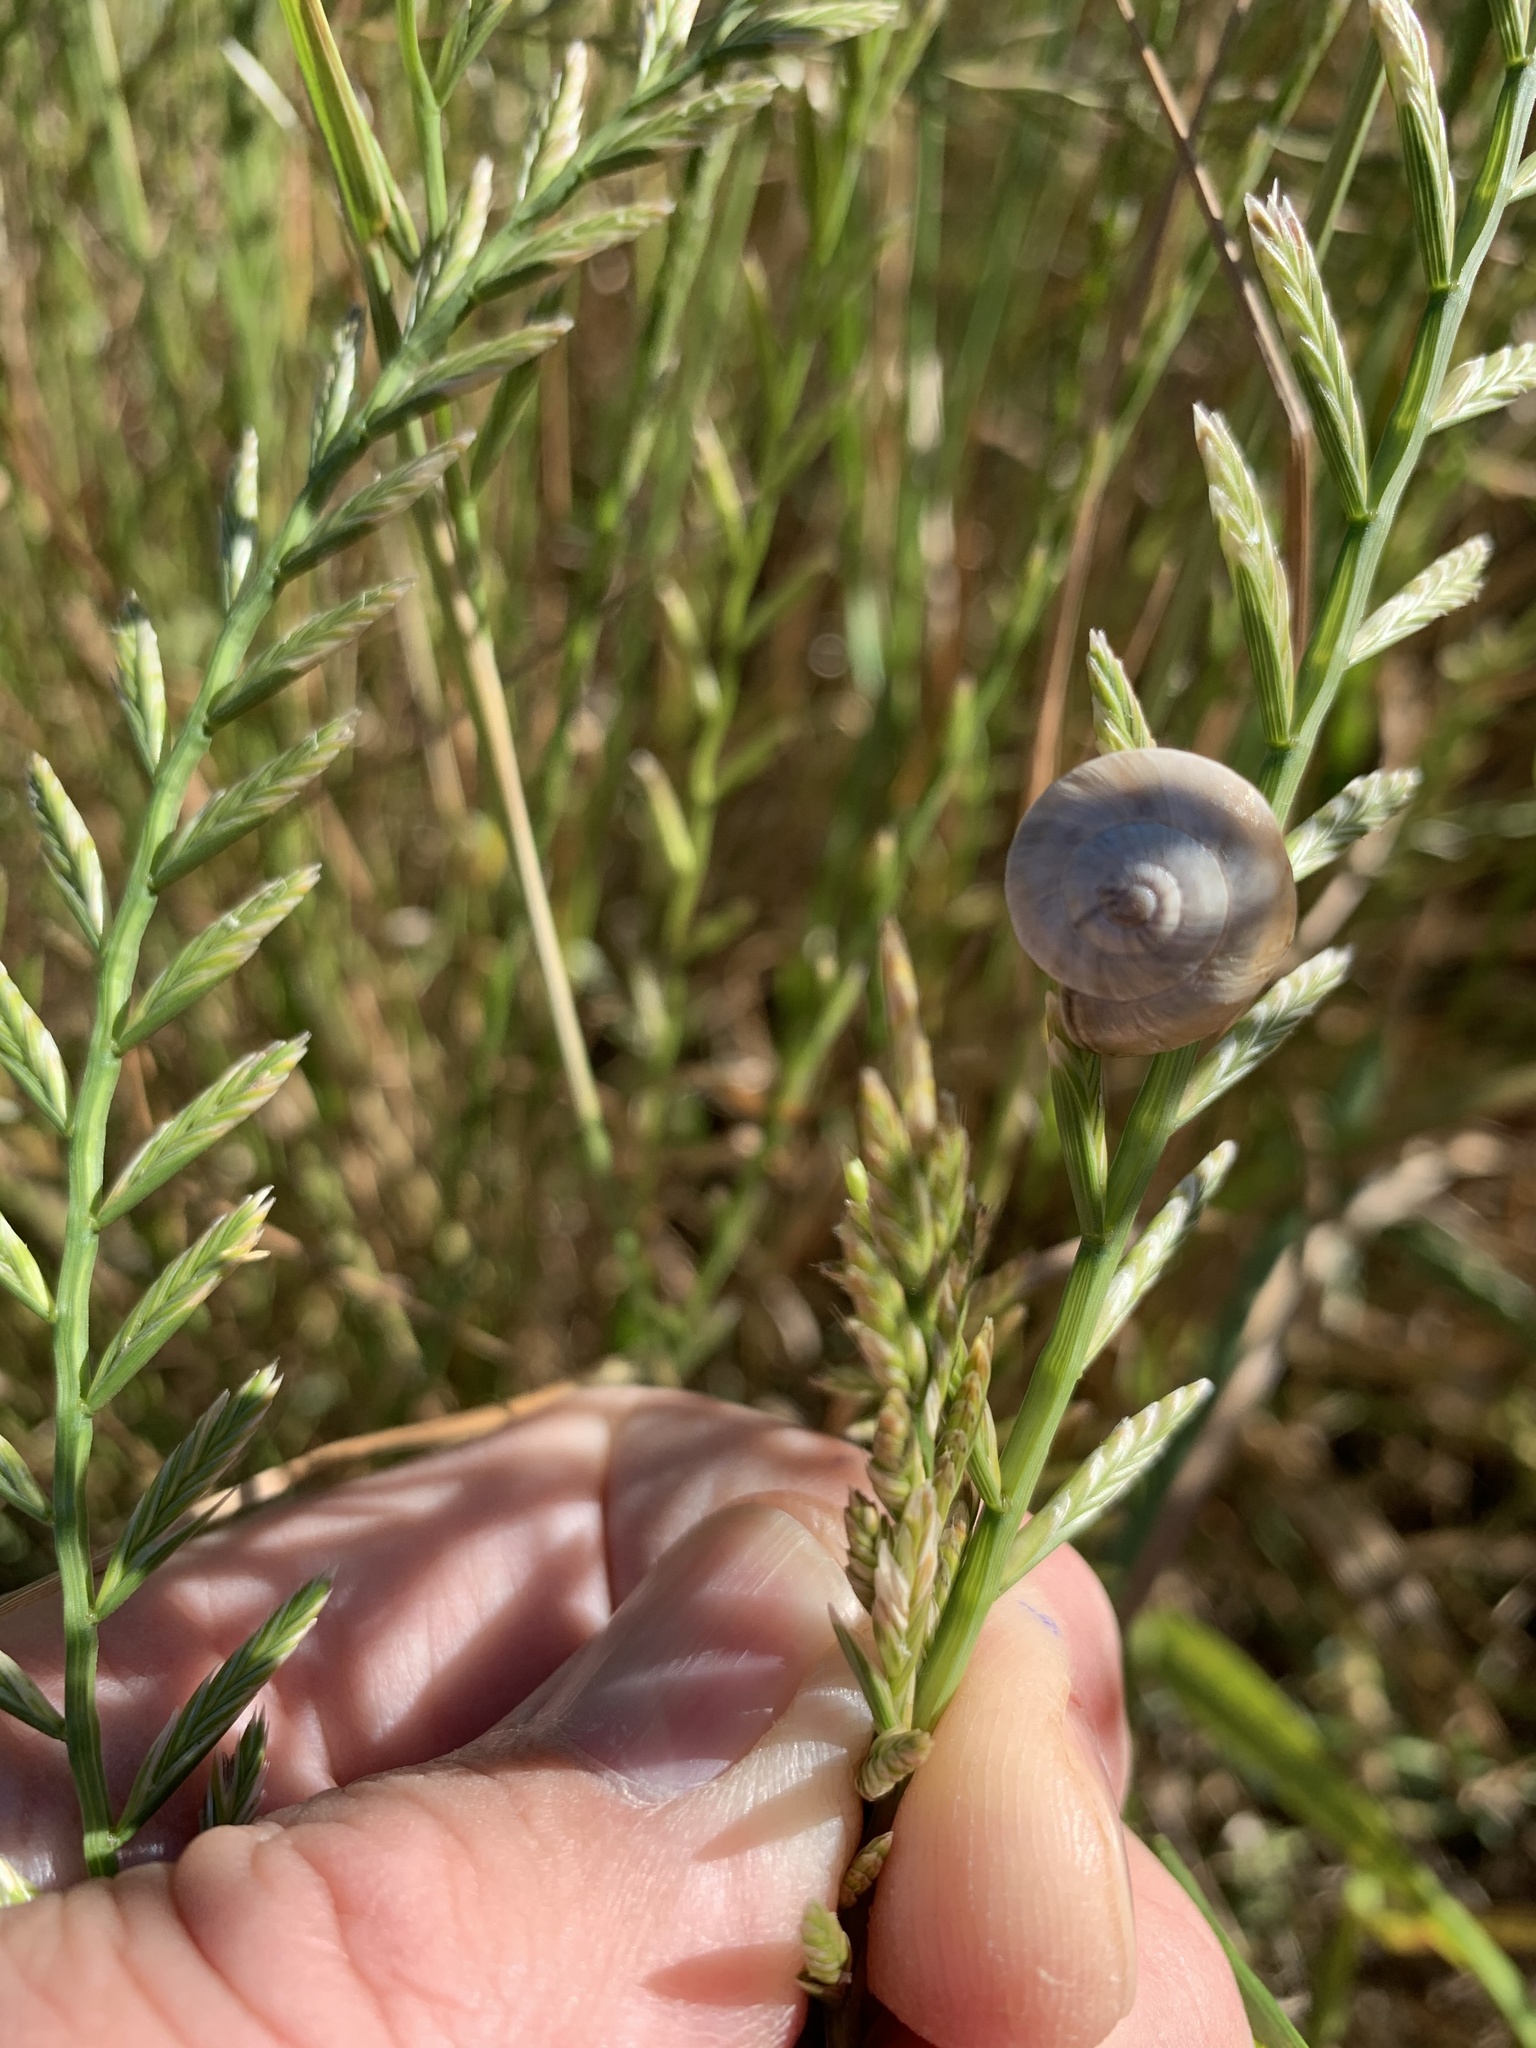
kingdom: Animalia
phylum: Mollusca
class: Gastropoda
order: Stylommatophora
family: Helicidae
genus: Theba
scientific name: Theba pisana
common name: White snail
